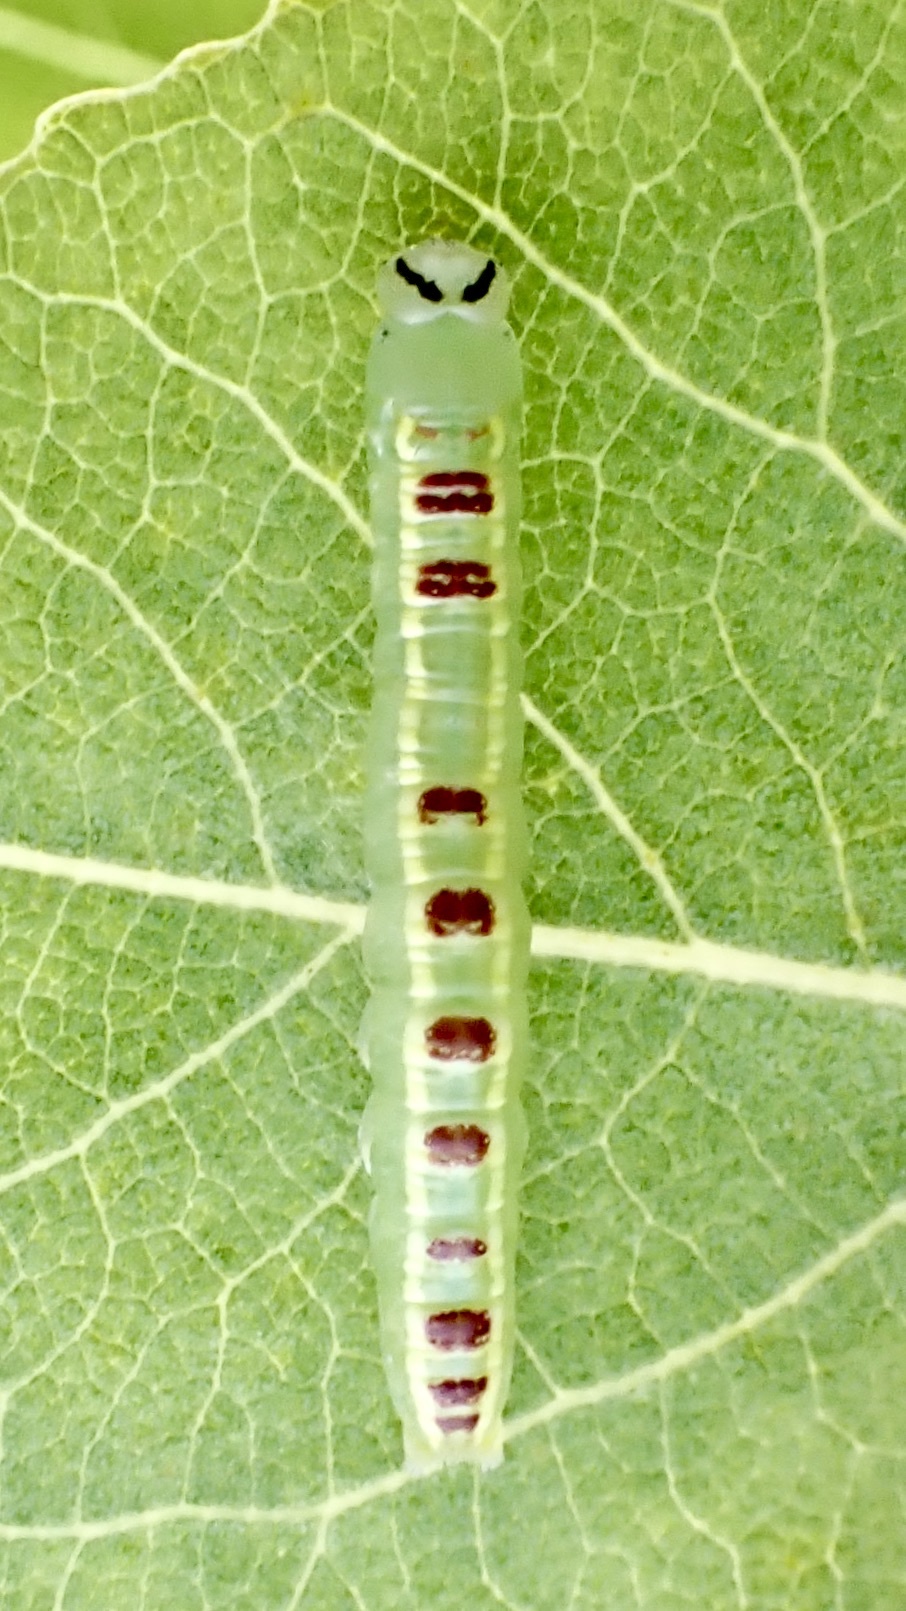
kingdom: Animalia
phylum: Arthropoda
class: Insecta
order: Lepidoptera
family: Notodontidae
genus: Gluphisia
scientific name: Gluphisia septentrionis
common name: Common gluphisia
